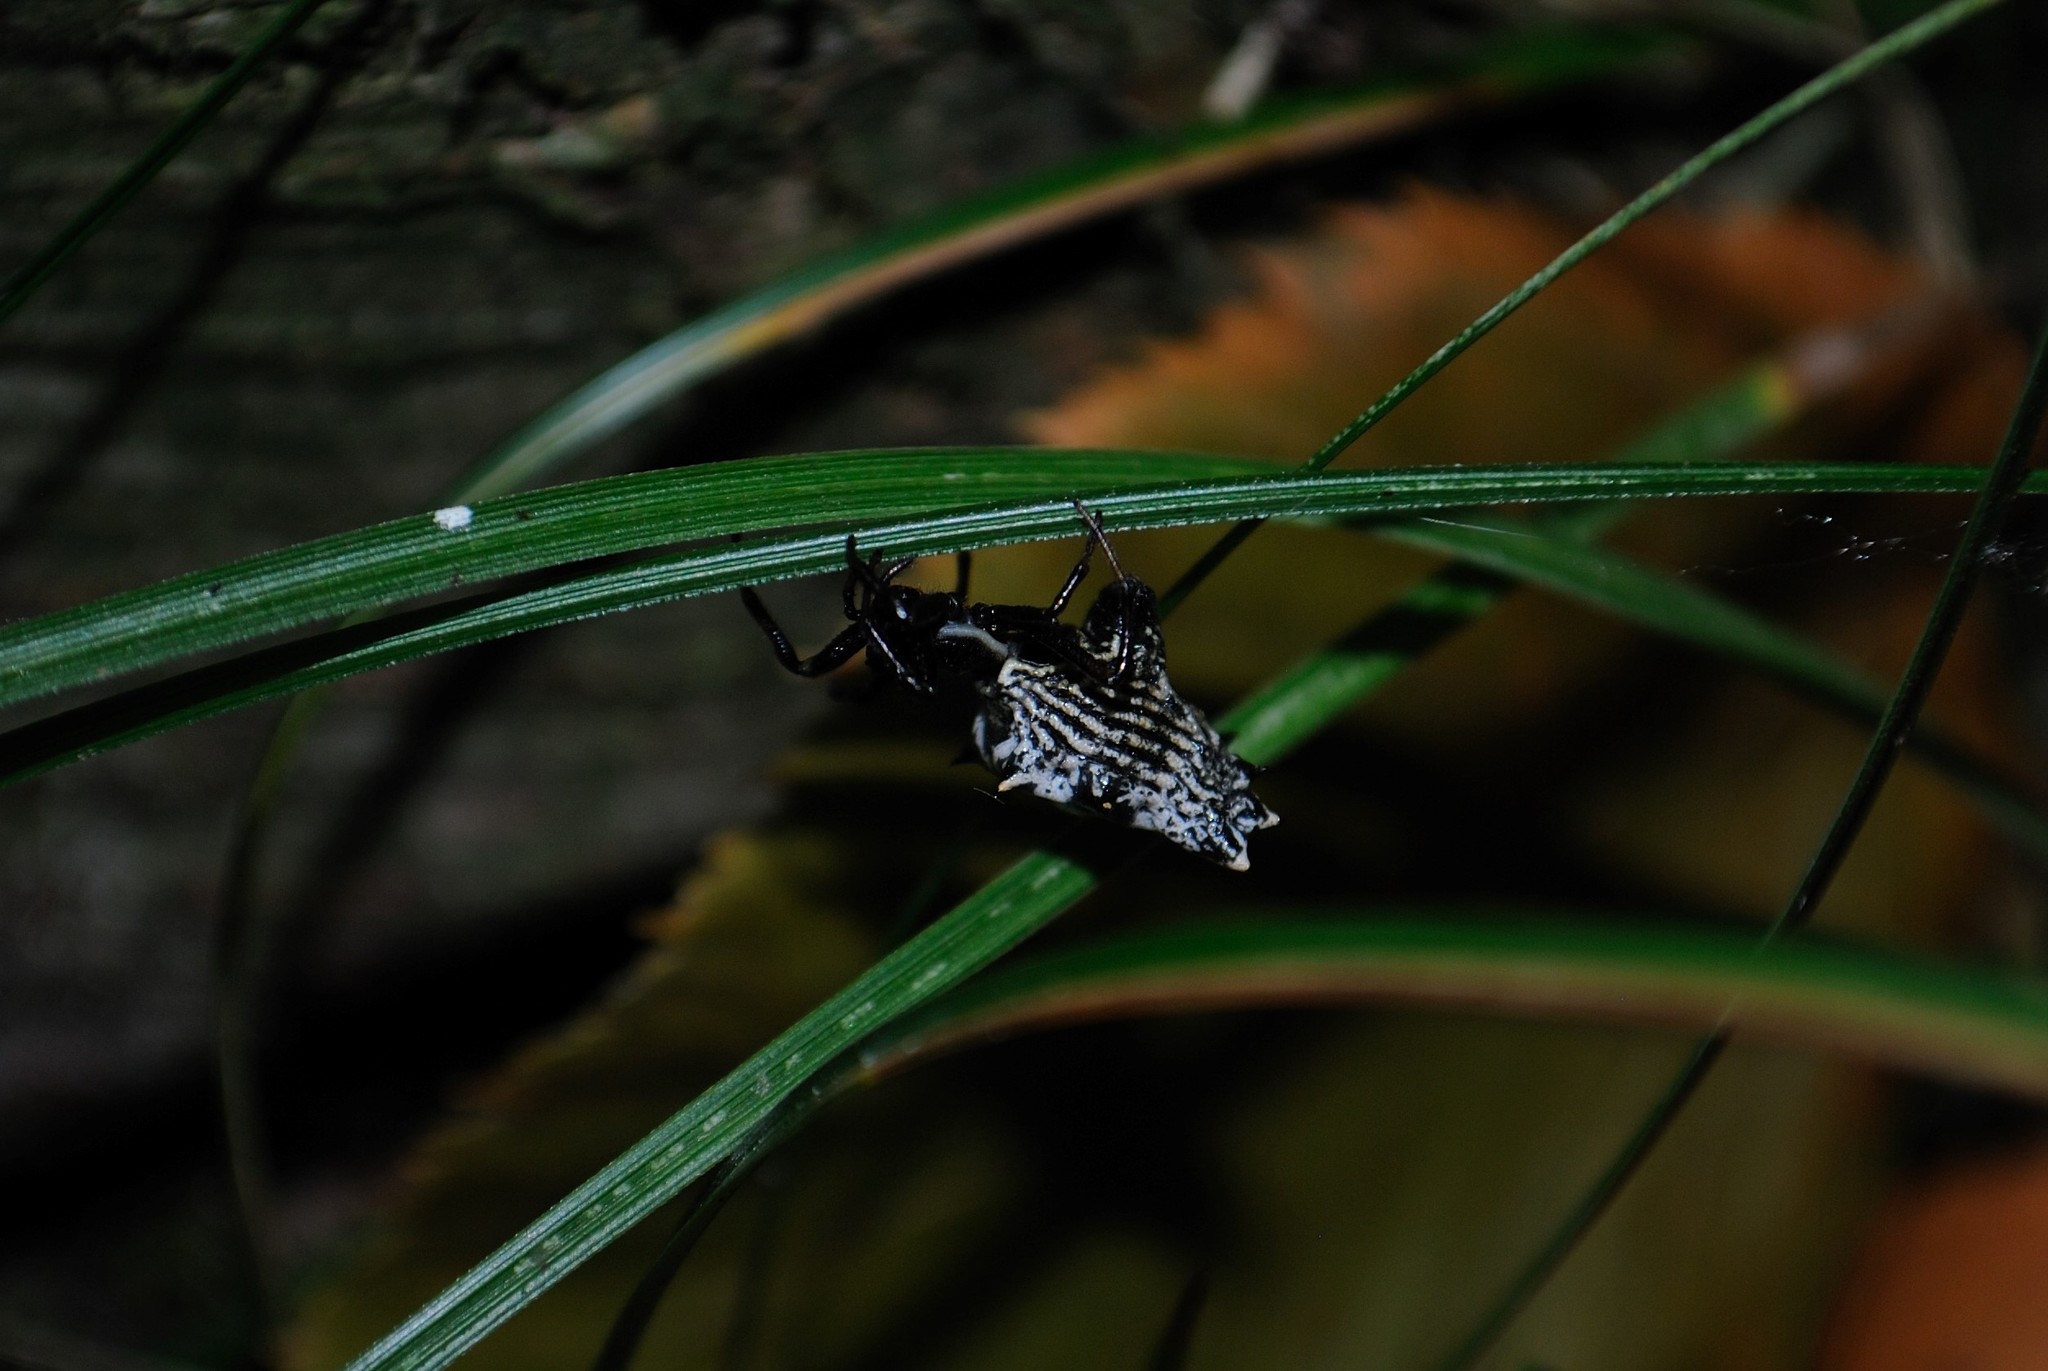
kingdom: Animalia
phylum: Arthropoda
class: Arachnida
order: Araneae
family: Araneidae
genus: Micrathena
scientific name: Micrathena gracilis
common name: Orb weavers
